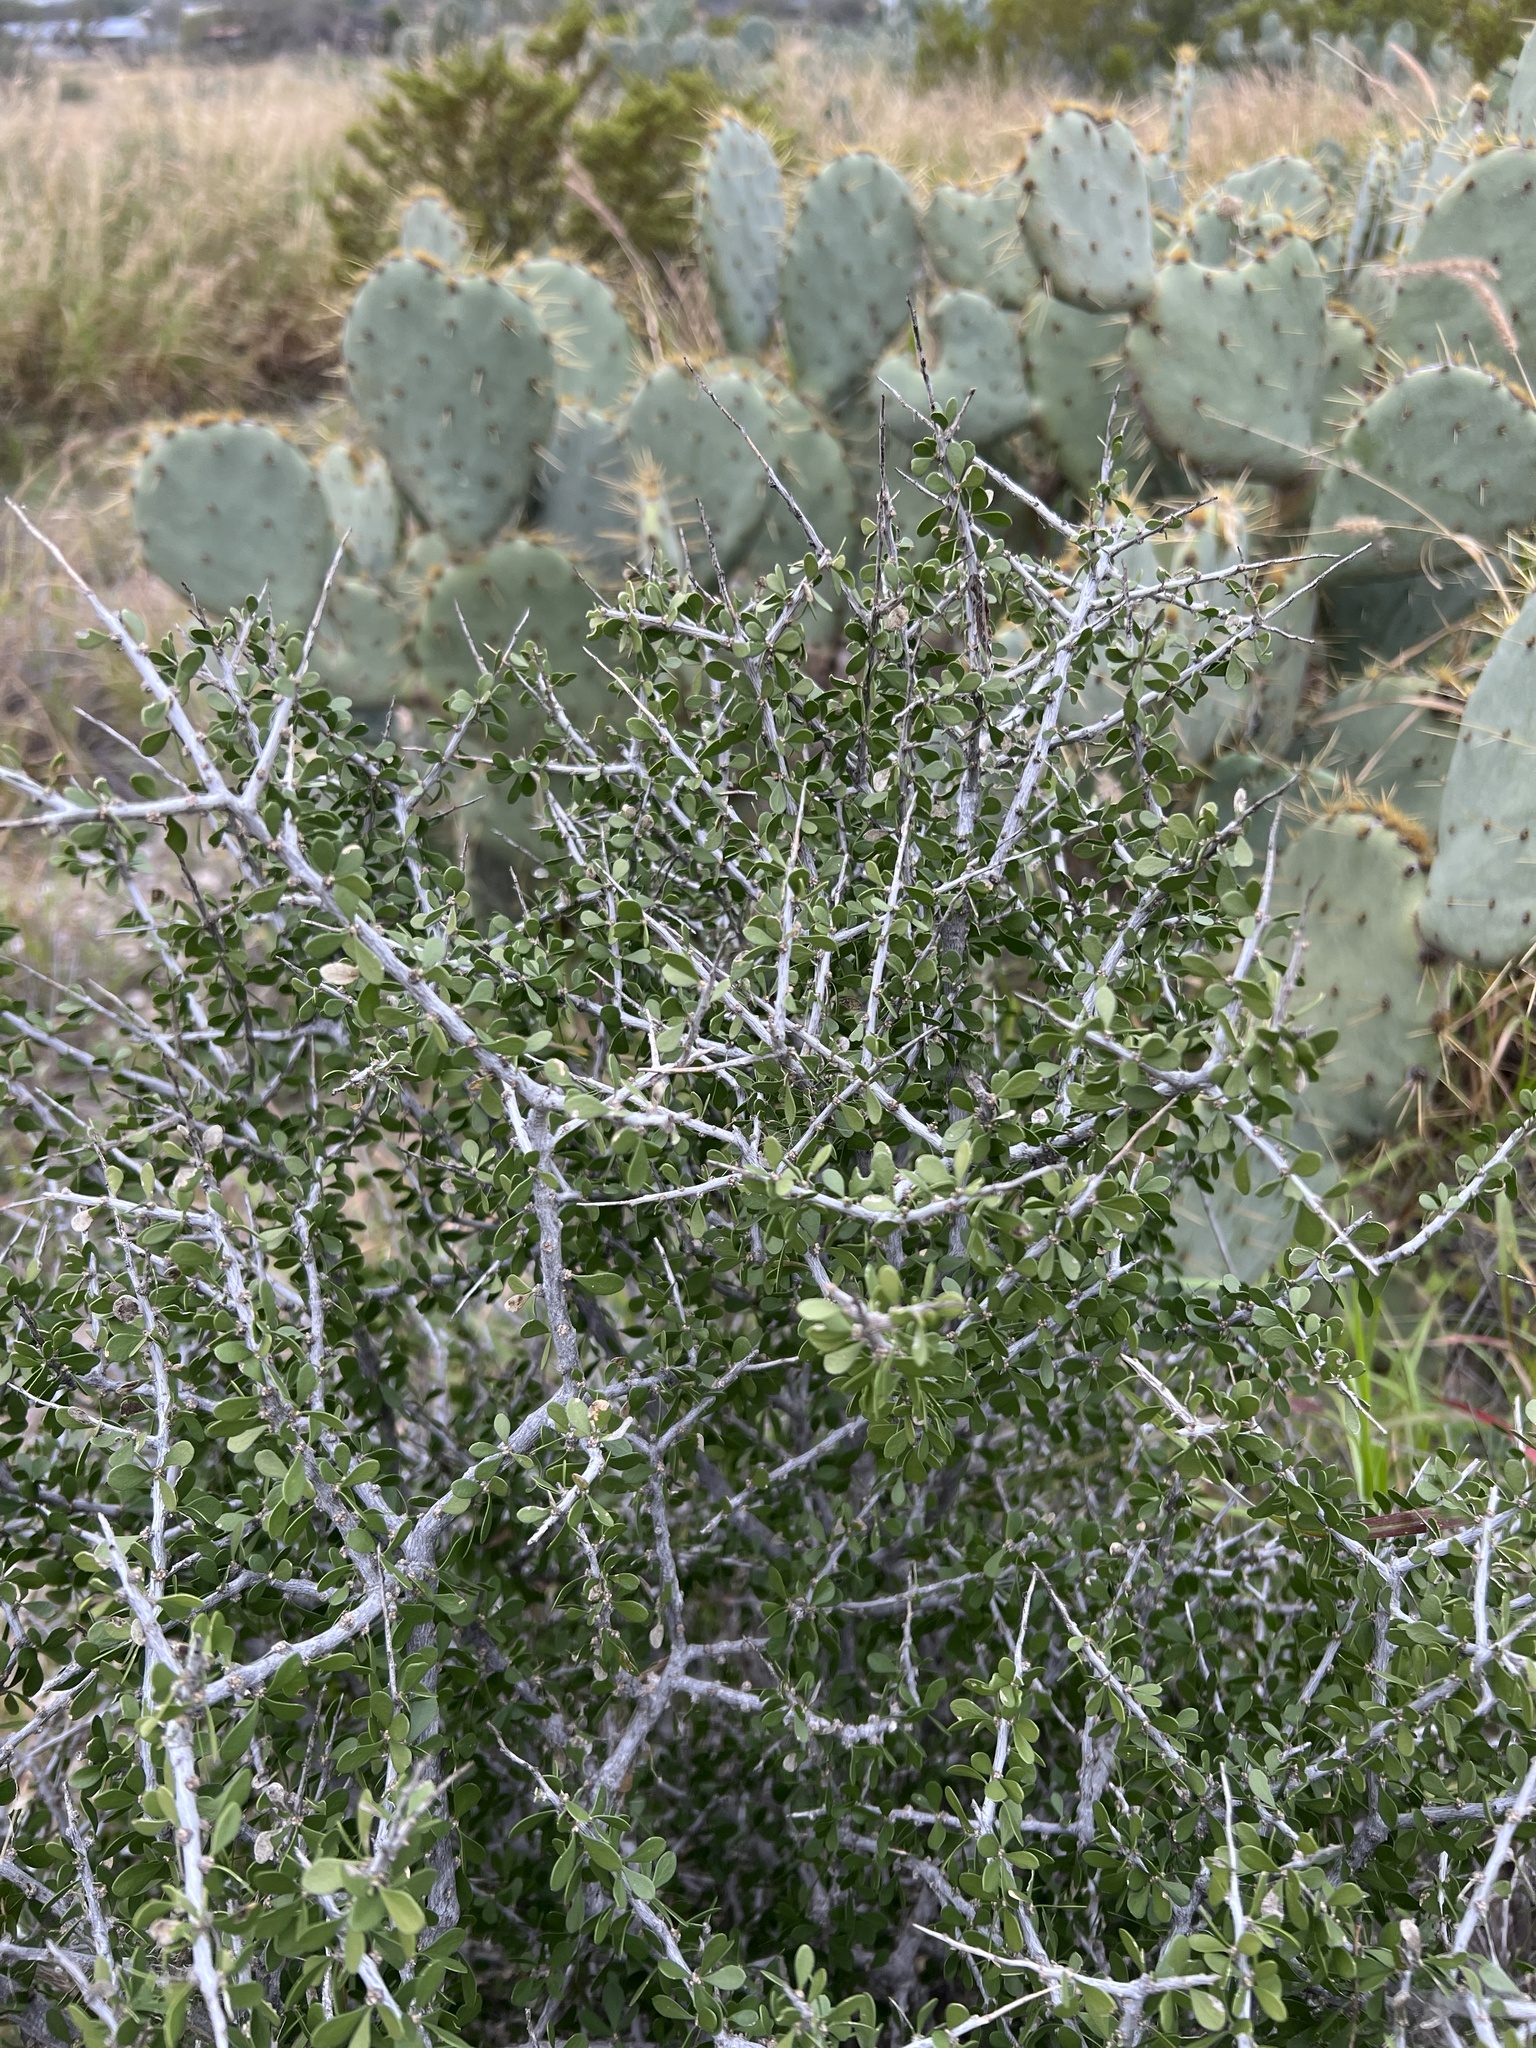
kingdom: Plantae
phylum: Tracheophyta
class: Magnoliopsida
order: Celastrales
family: Celastraceae
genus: Schaefferia
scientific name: Schaefferia cuneifolia
